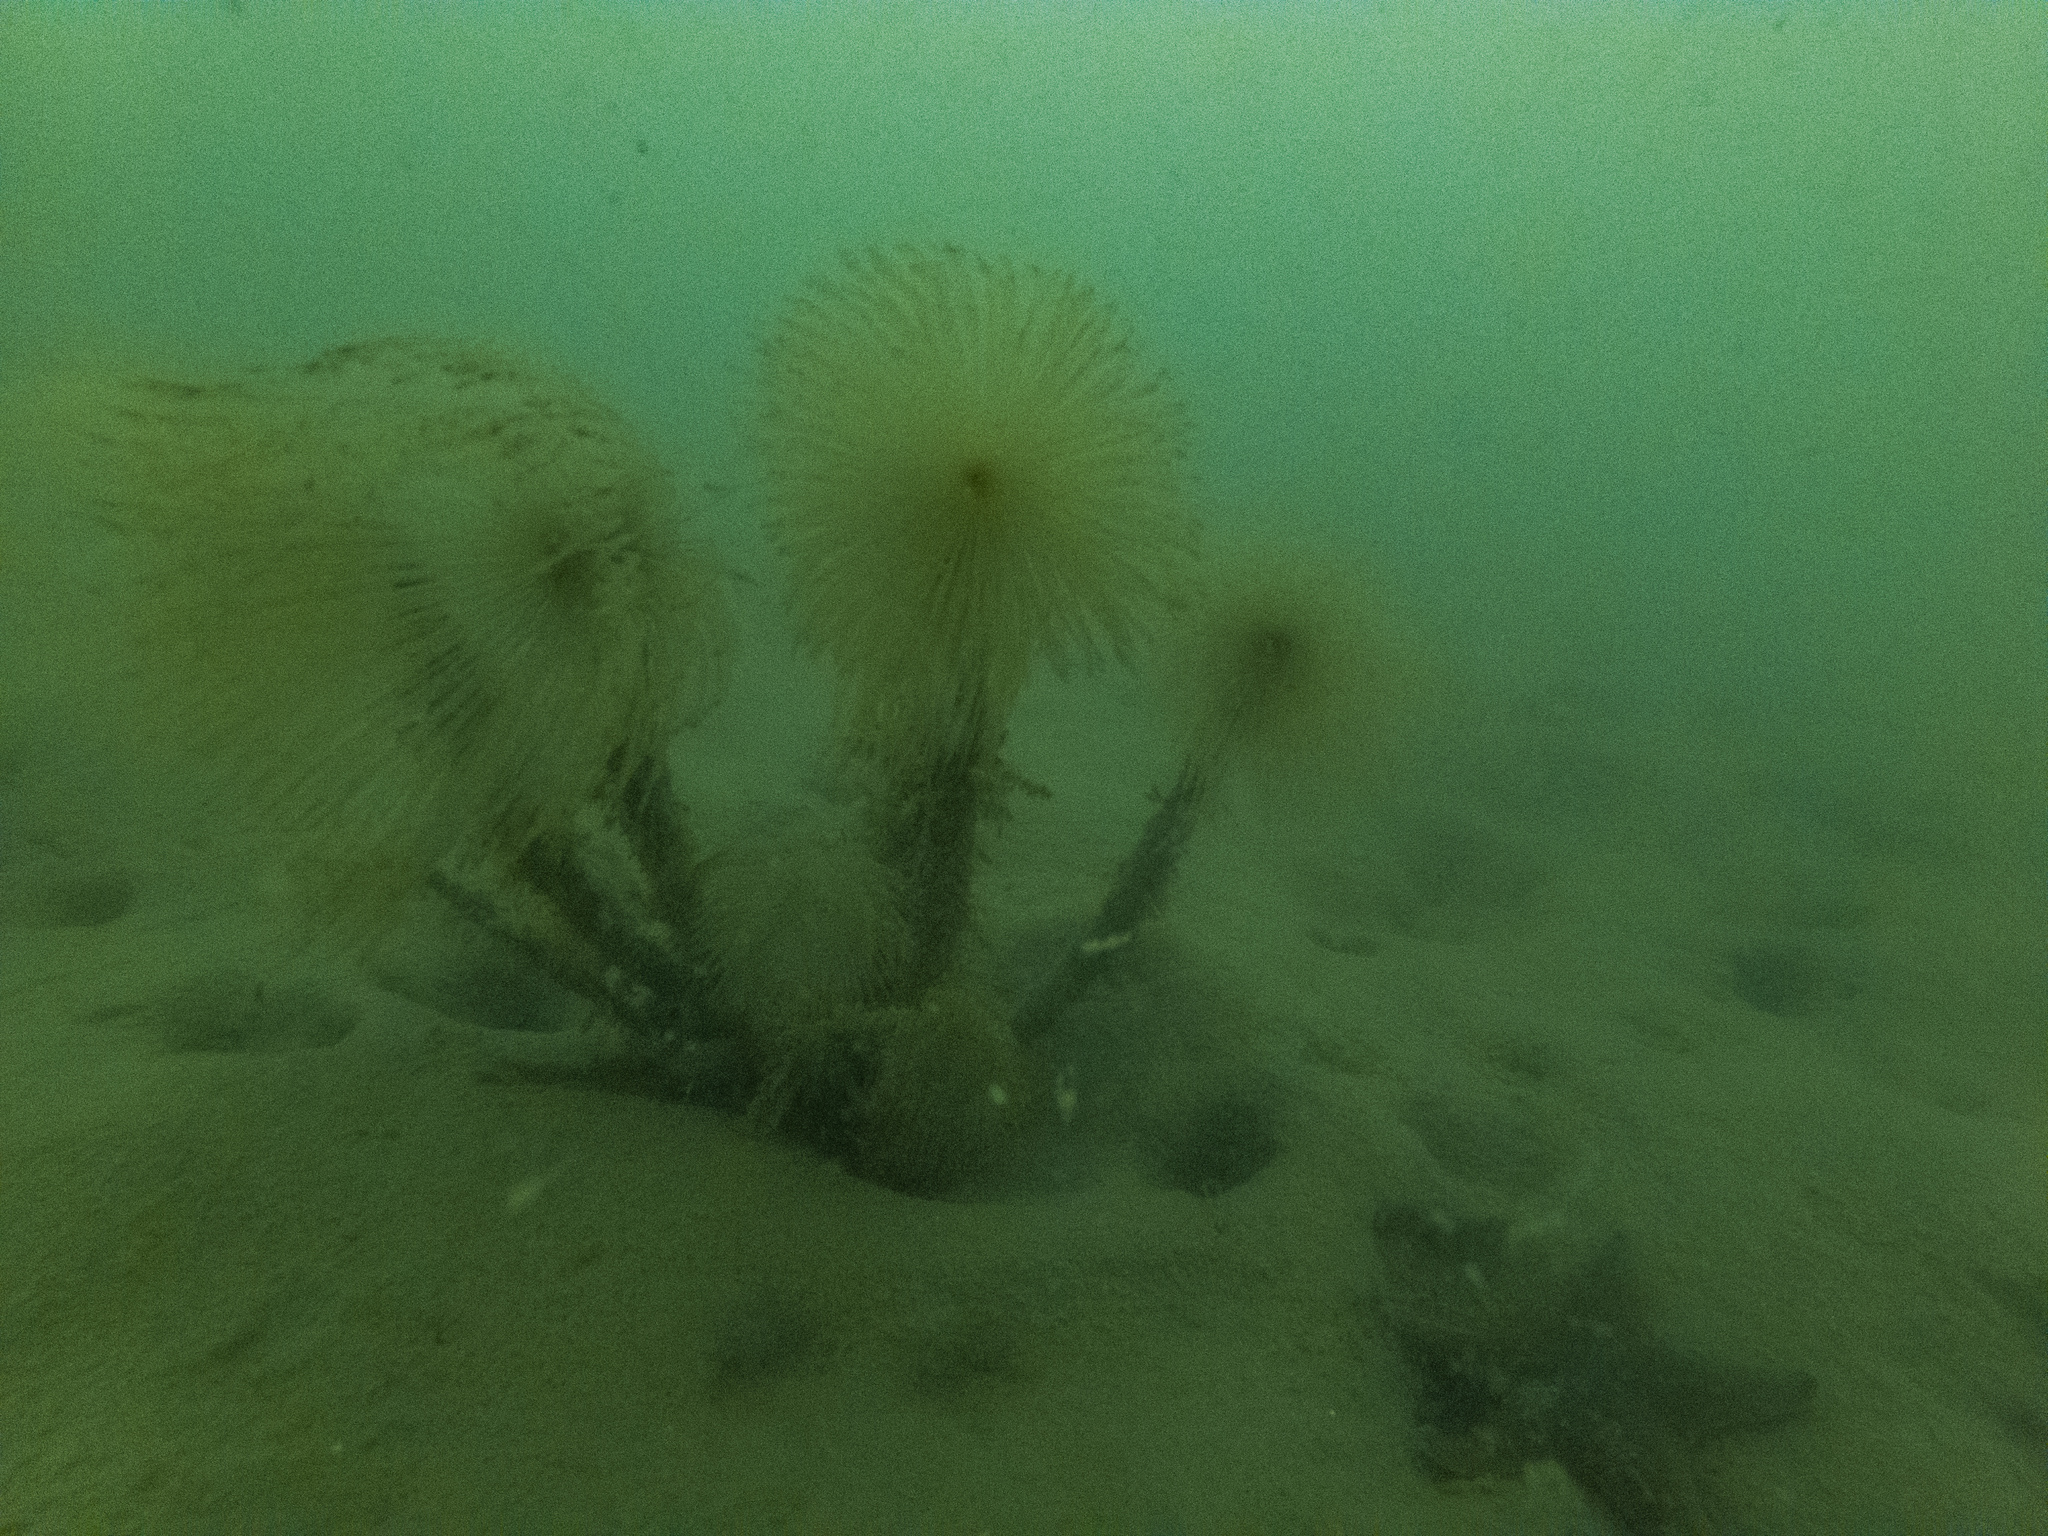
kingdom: Animalia
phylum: Annelida
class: Polychaeta
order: Sabellida
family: Sabellidae
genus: Sabella
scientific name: Sabella spallanzanii
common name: Feather duster worm
